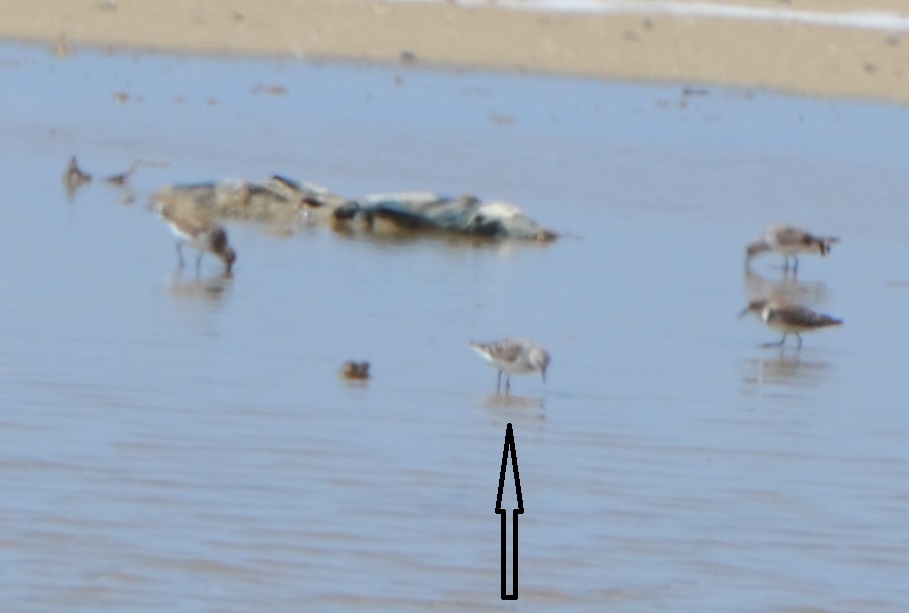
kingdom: Animalia
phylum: Chordata
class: Aves
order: Charadriiformes
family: Scolopacidae
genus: Calidris
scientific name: Calidris minuta
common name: Little stint
